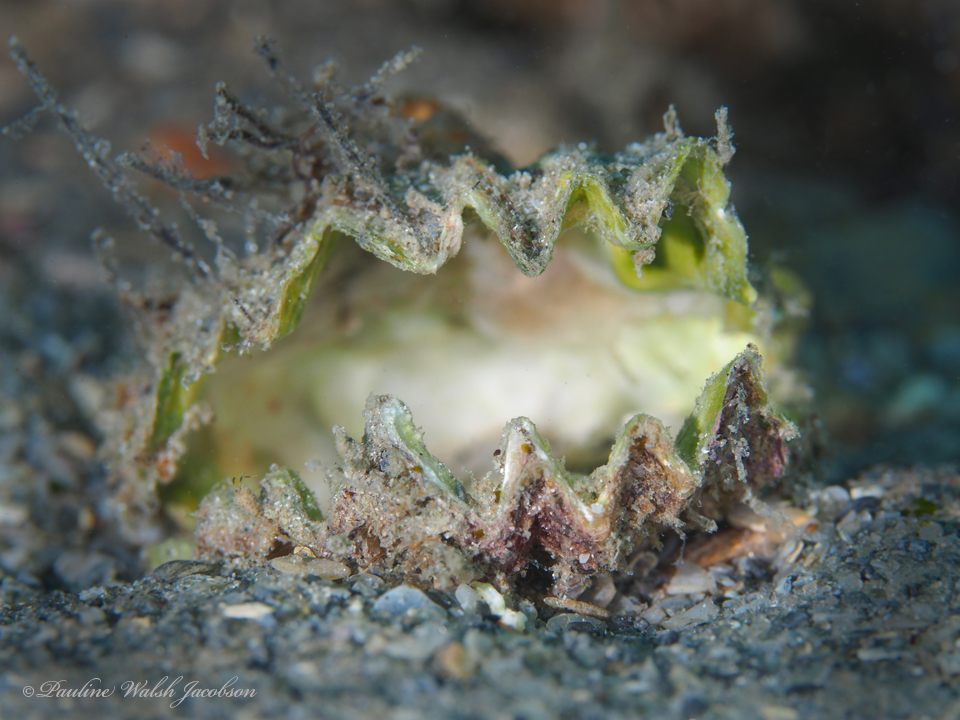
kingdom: Animalia
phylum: Mollusca
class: Bivalvia
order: Ostreida
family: Ostreidae
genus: Dendostrea
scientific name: Dendostrea frons
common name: Frond oyster
